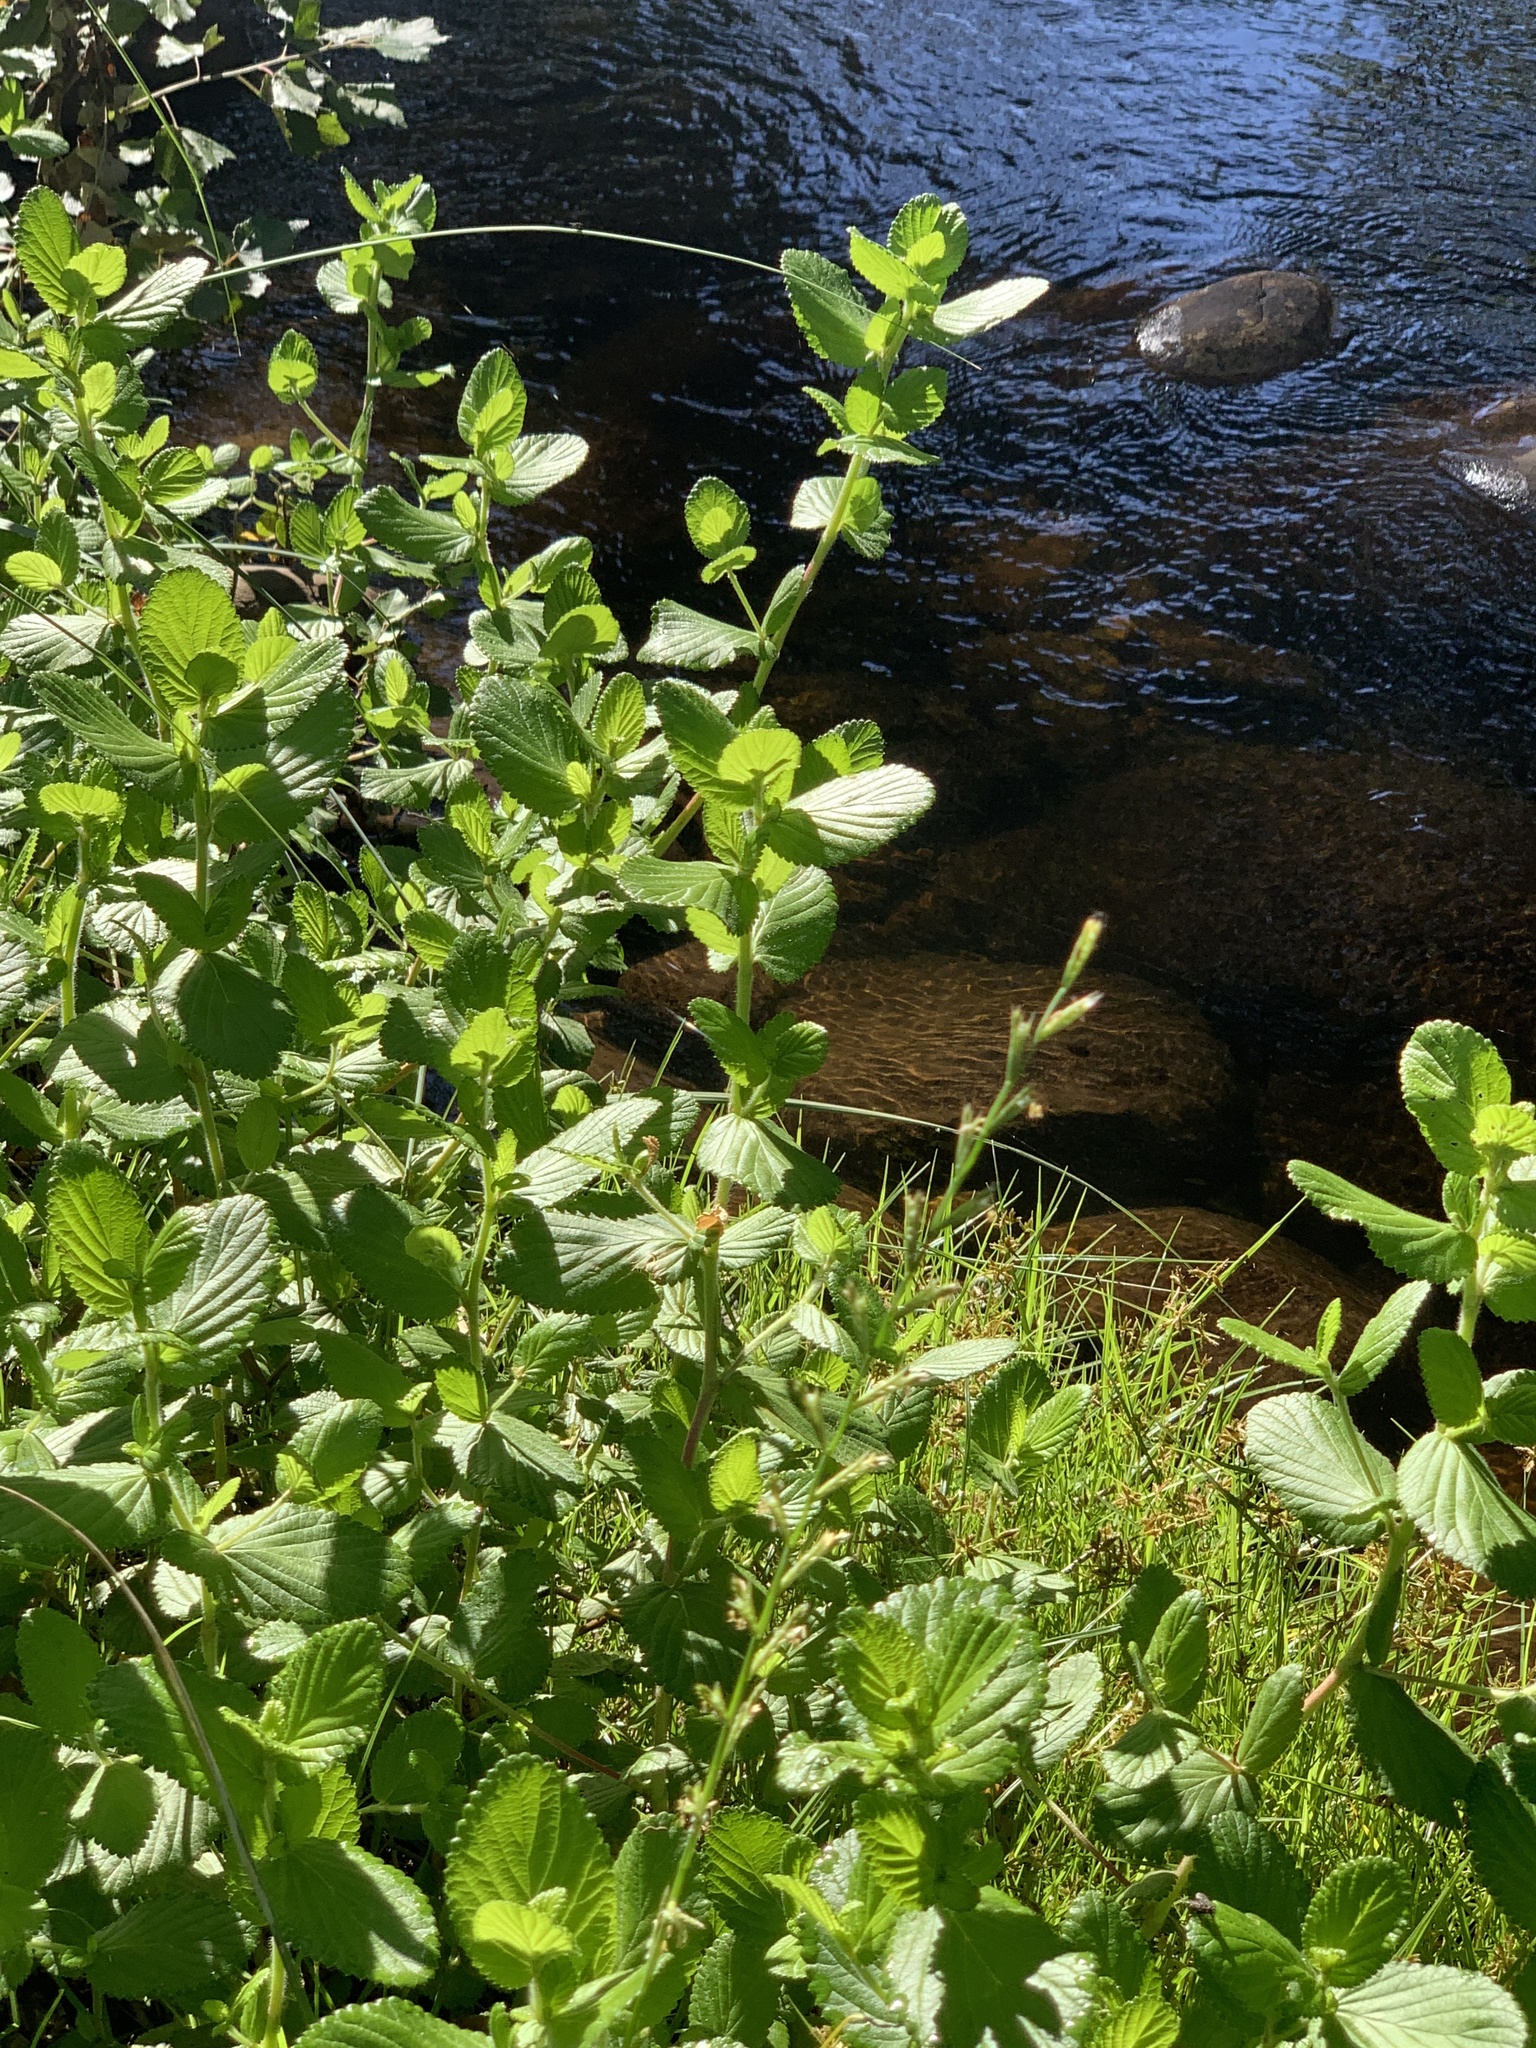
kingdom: Plantae
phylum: Tracheophyta
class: Magnoliopsida
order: Rosales
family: Rosaceae
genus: Cliffortia
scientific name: Cliffortia odorata
